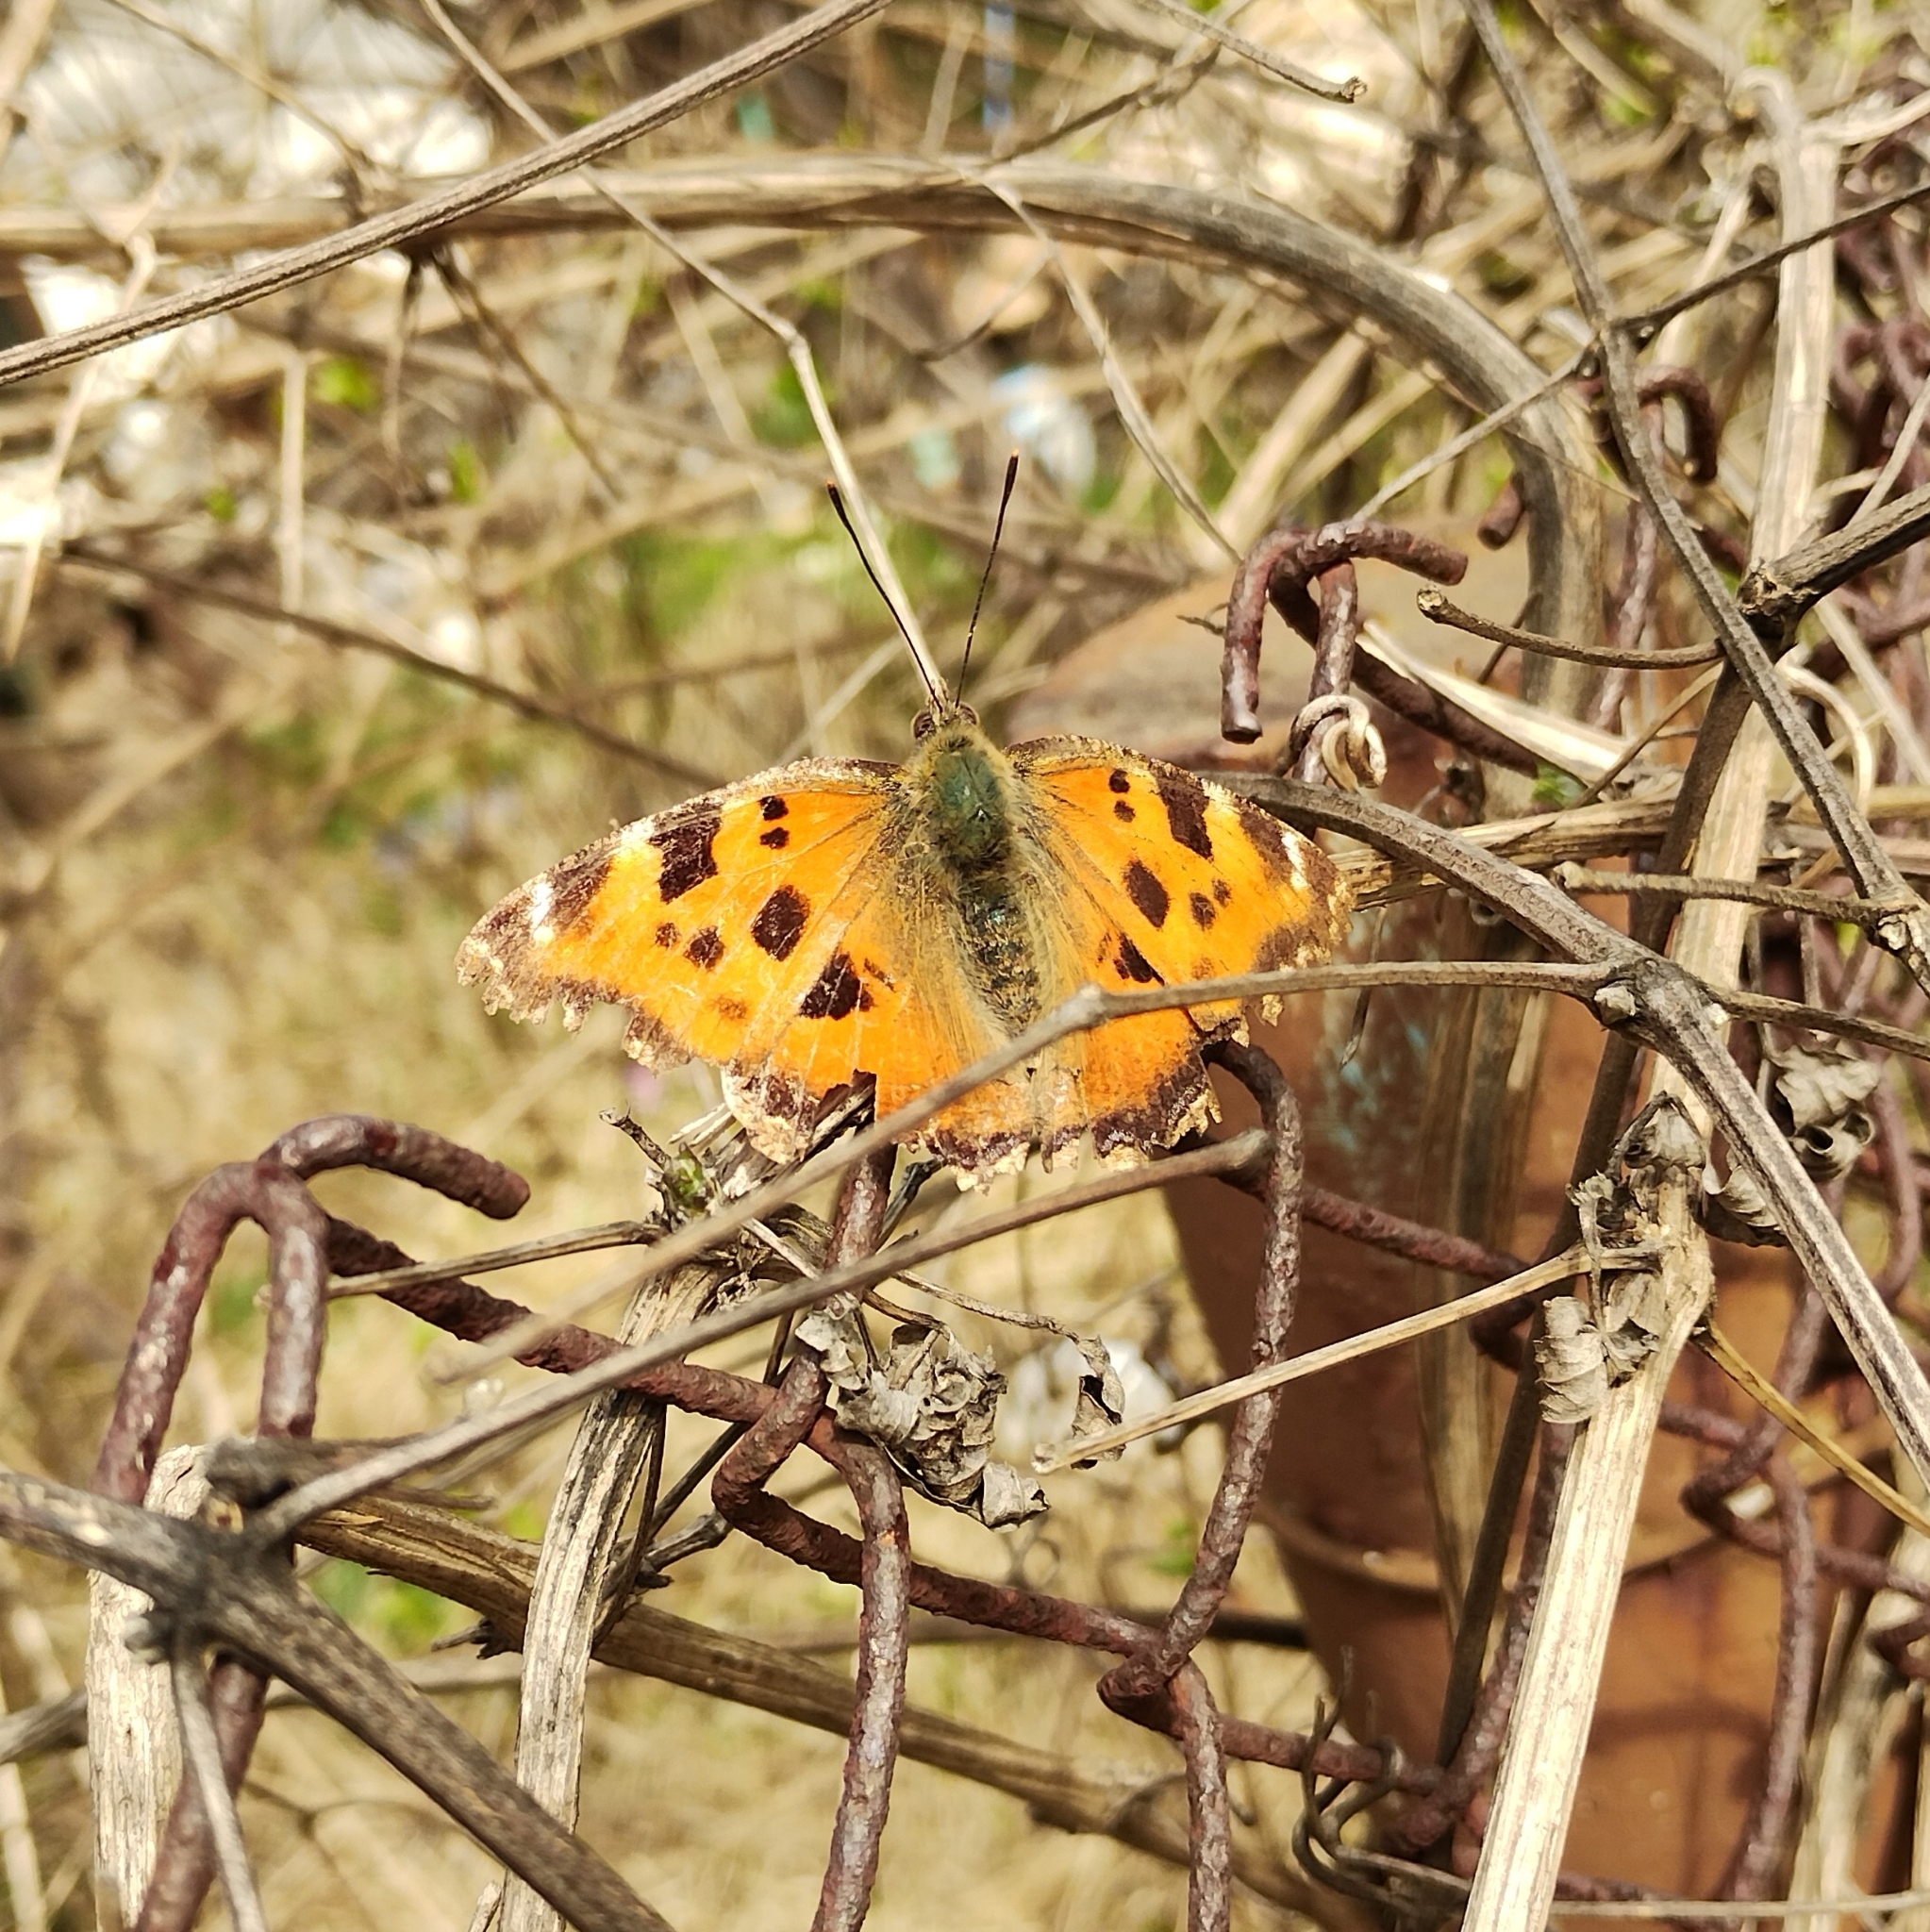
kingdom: Animalia
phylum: Arthropoda
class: Insecta
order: Lepidoptera
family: Nymphalidae
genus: Nymphalis
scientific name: Nymphalis xanthomelas
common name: Scarce tortoiseshell
